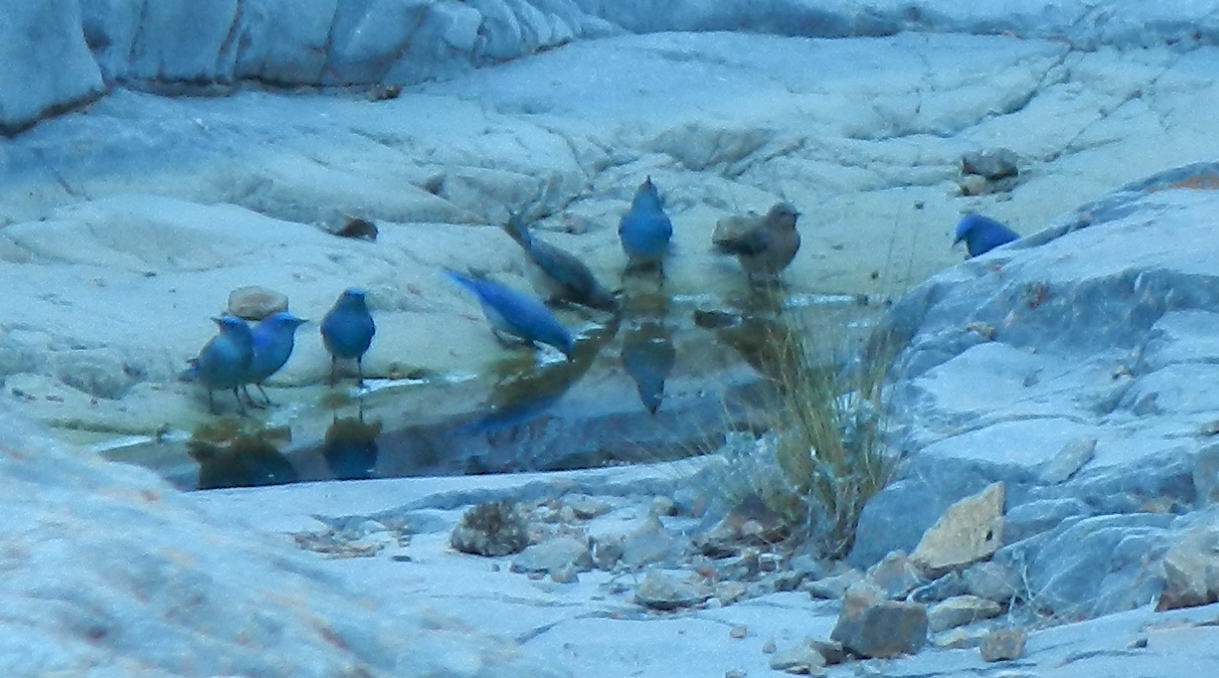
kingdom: Animalia
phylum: Chordata
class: Aves
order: Passeriformes
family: Turdidae
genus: Sialia
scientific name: Sialia currucoides
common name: Mountain bluebird
